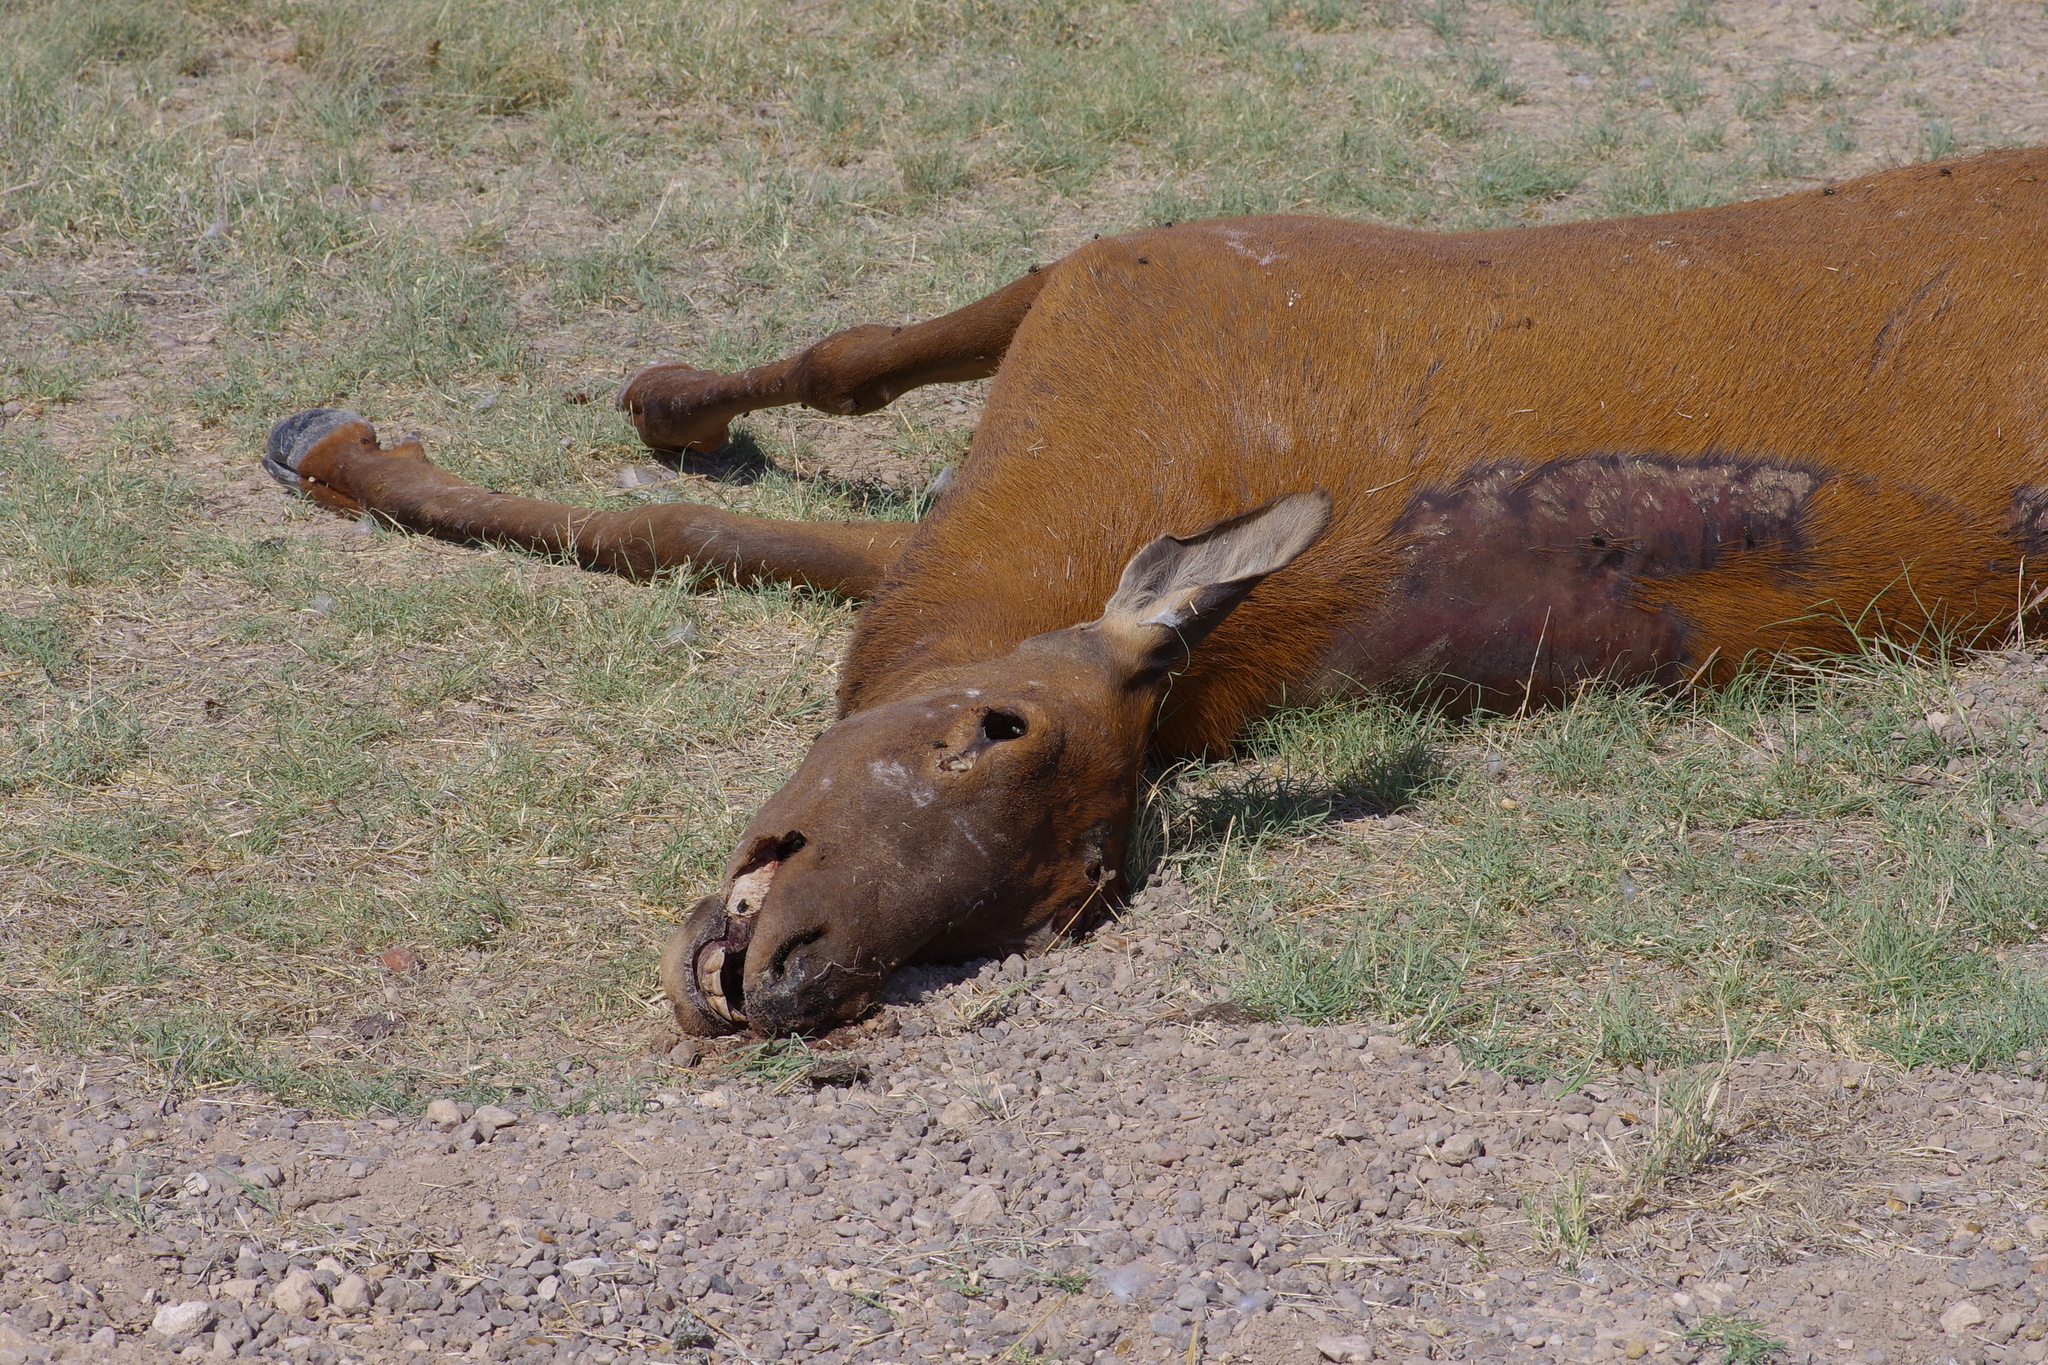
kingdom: Animalia
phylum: Chordata
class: Mammalia
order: Artiodactyla
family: Cervidae
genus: Cervus
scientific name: Cervus elaphus
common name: Red deer
